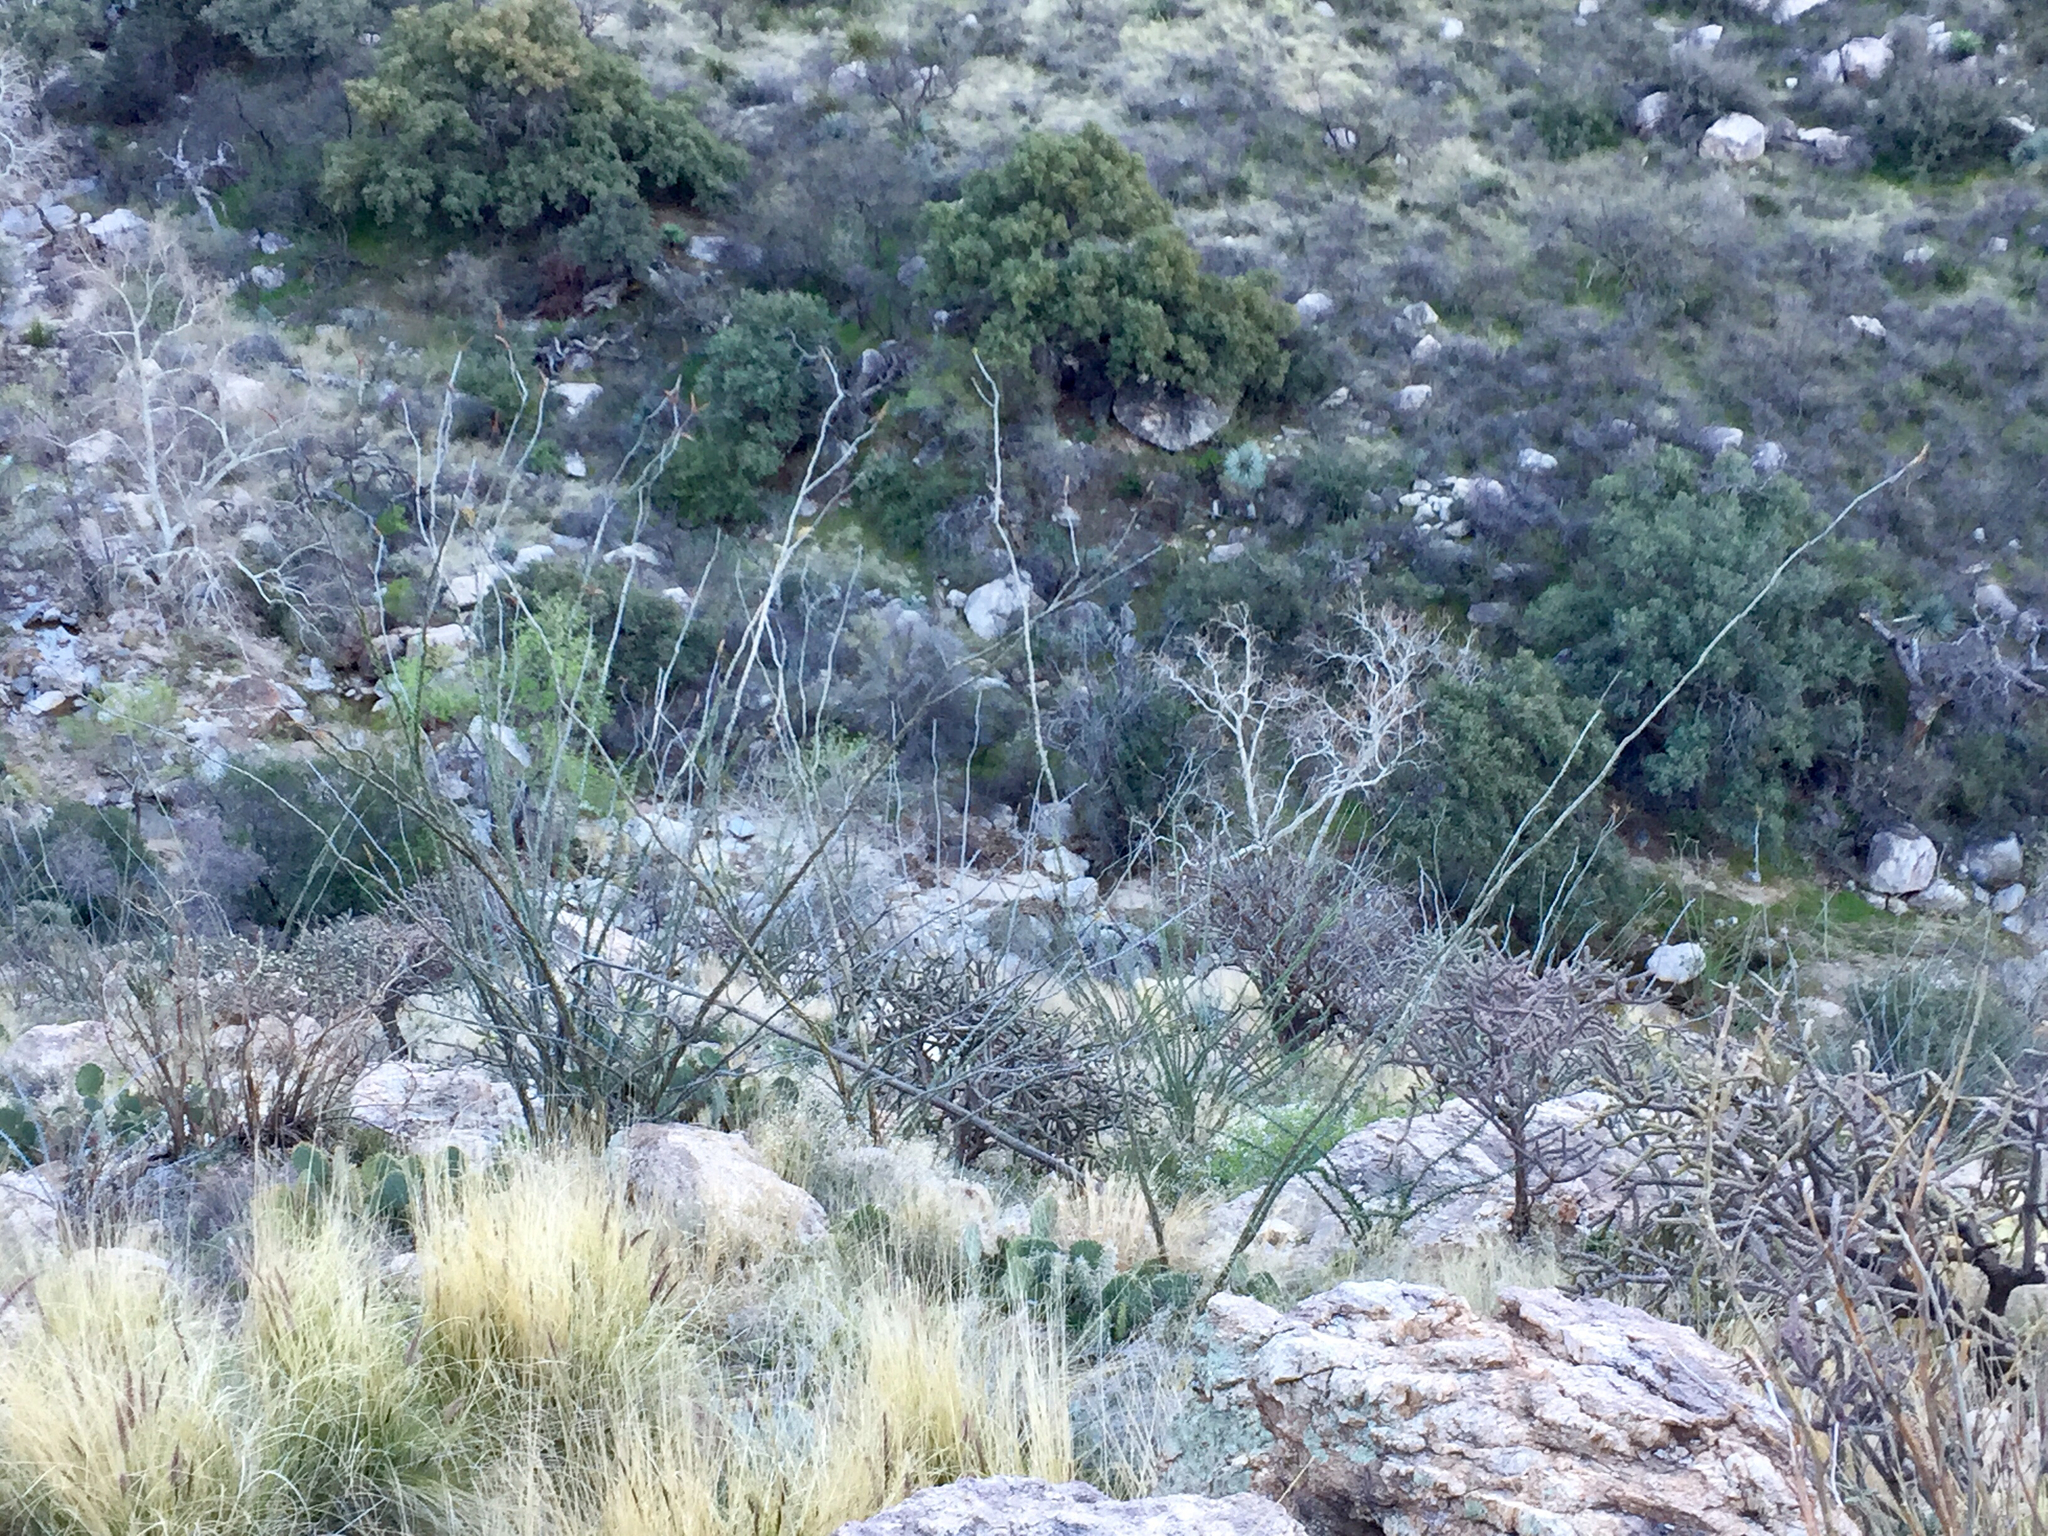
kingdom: Plantae
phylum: Tracheophyta
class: Magnoliopsida
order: Ericales
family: Fouquieriaceae
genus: Fouquieria
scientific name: Fouquieria splendens
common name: Vine-cactus
